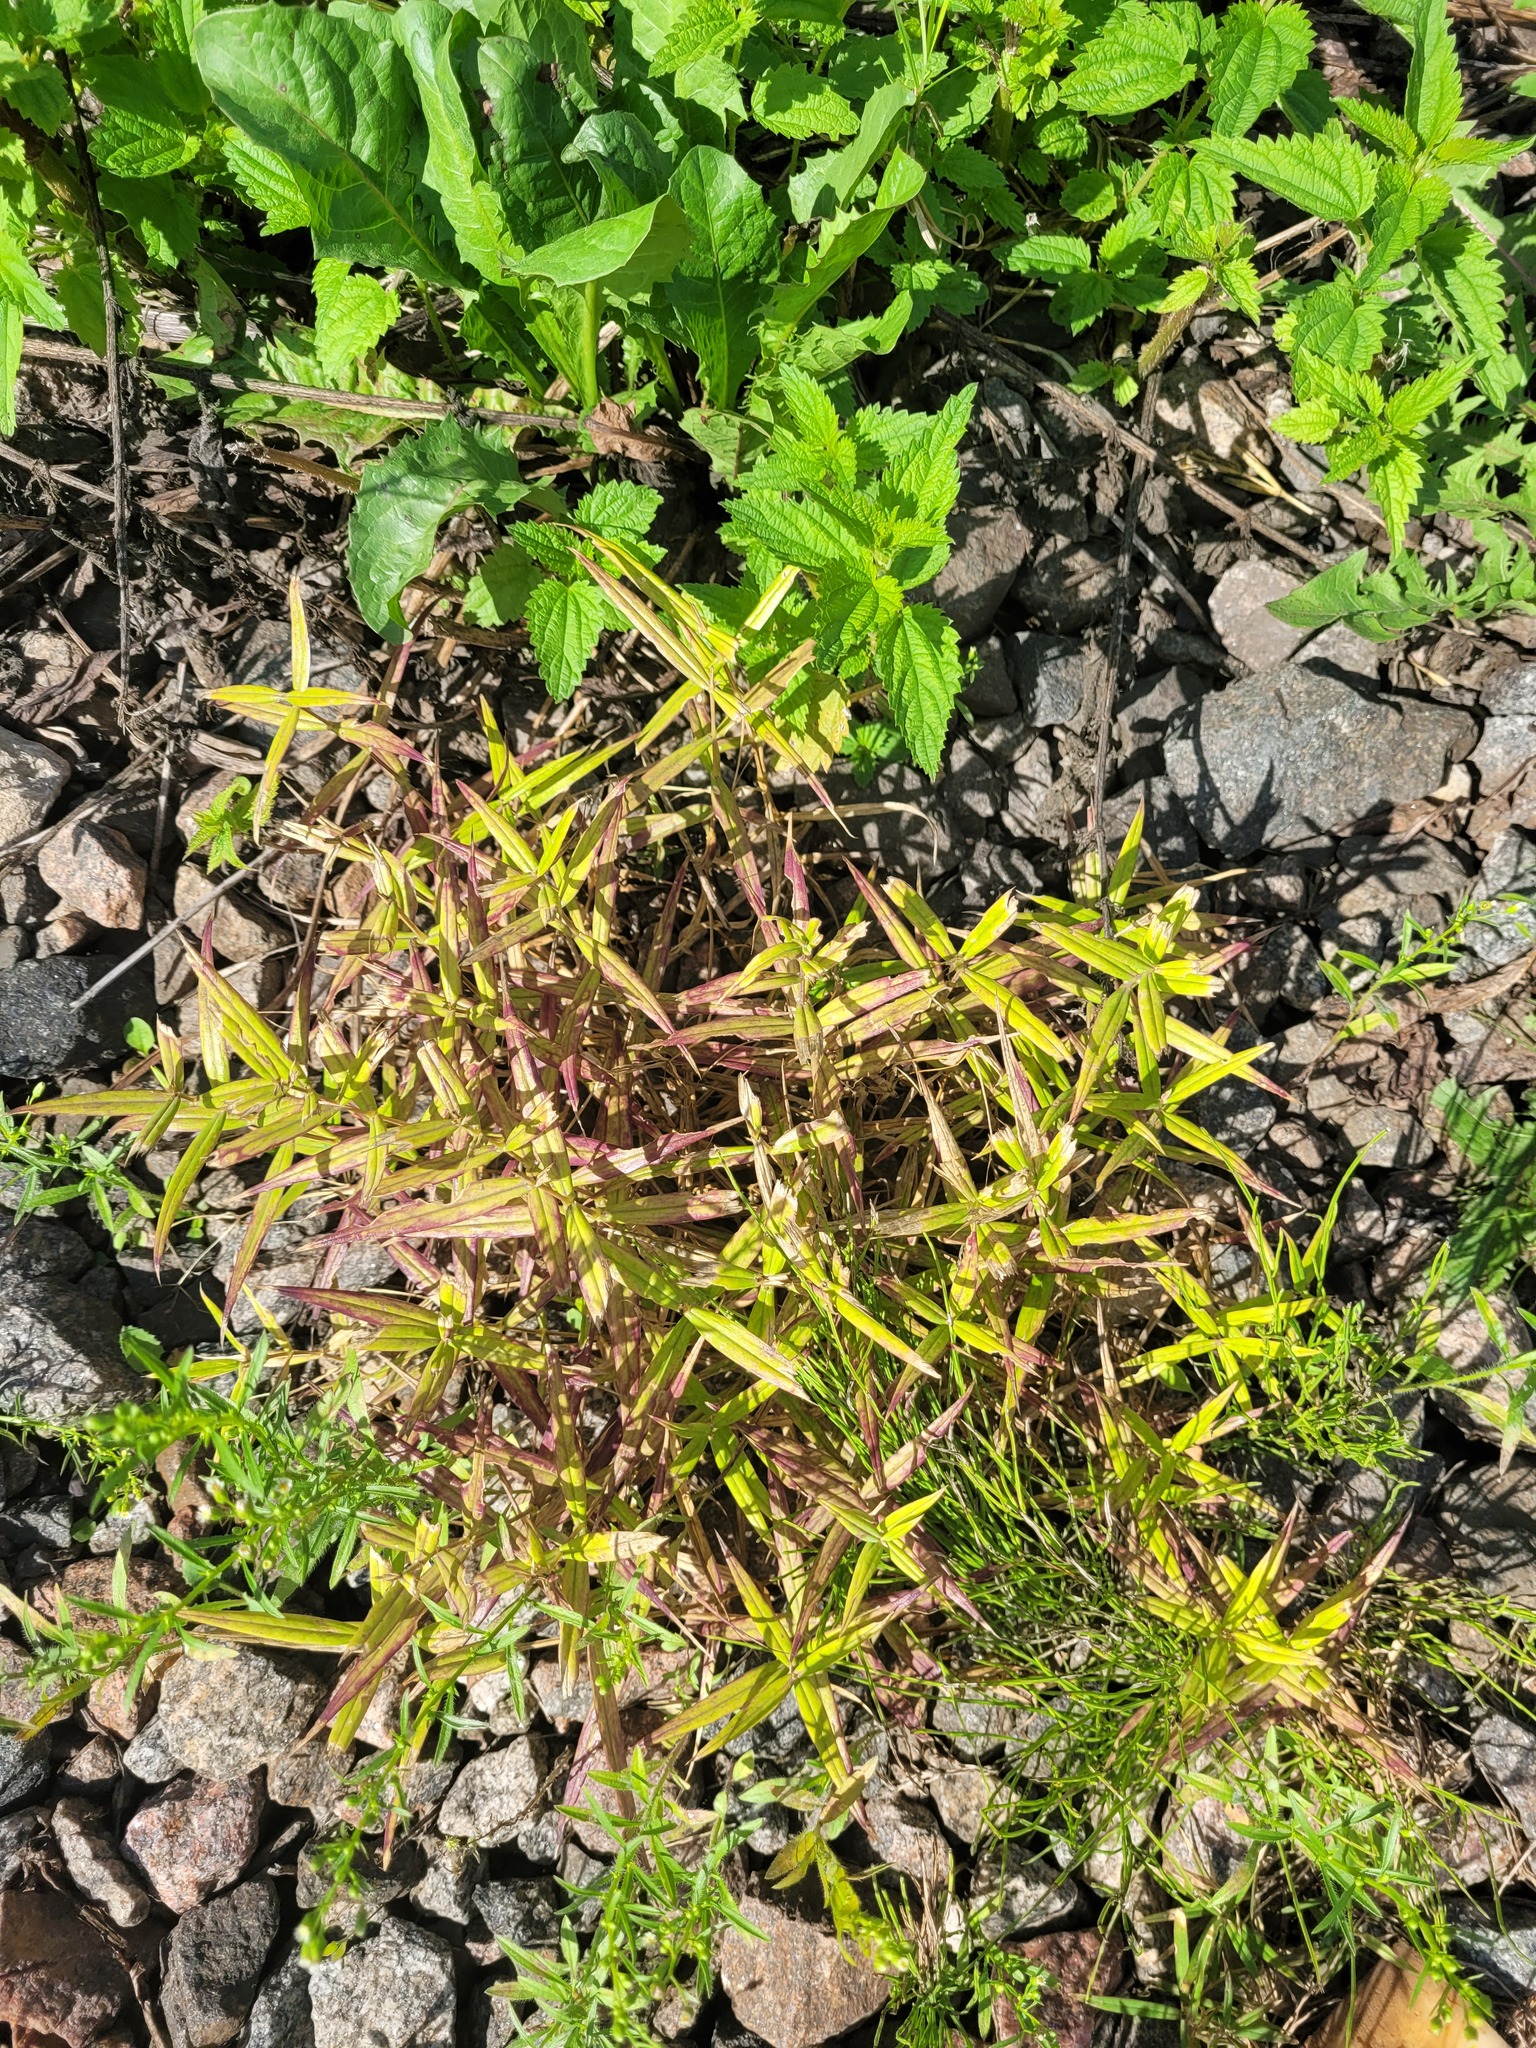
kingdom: Plantae
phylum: Tracheophyta
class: Magnoliopsida
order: Caryophyllales
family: Caryophyllaceae
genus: Rabelera
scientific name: Rabelera holostea
